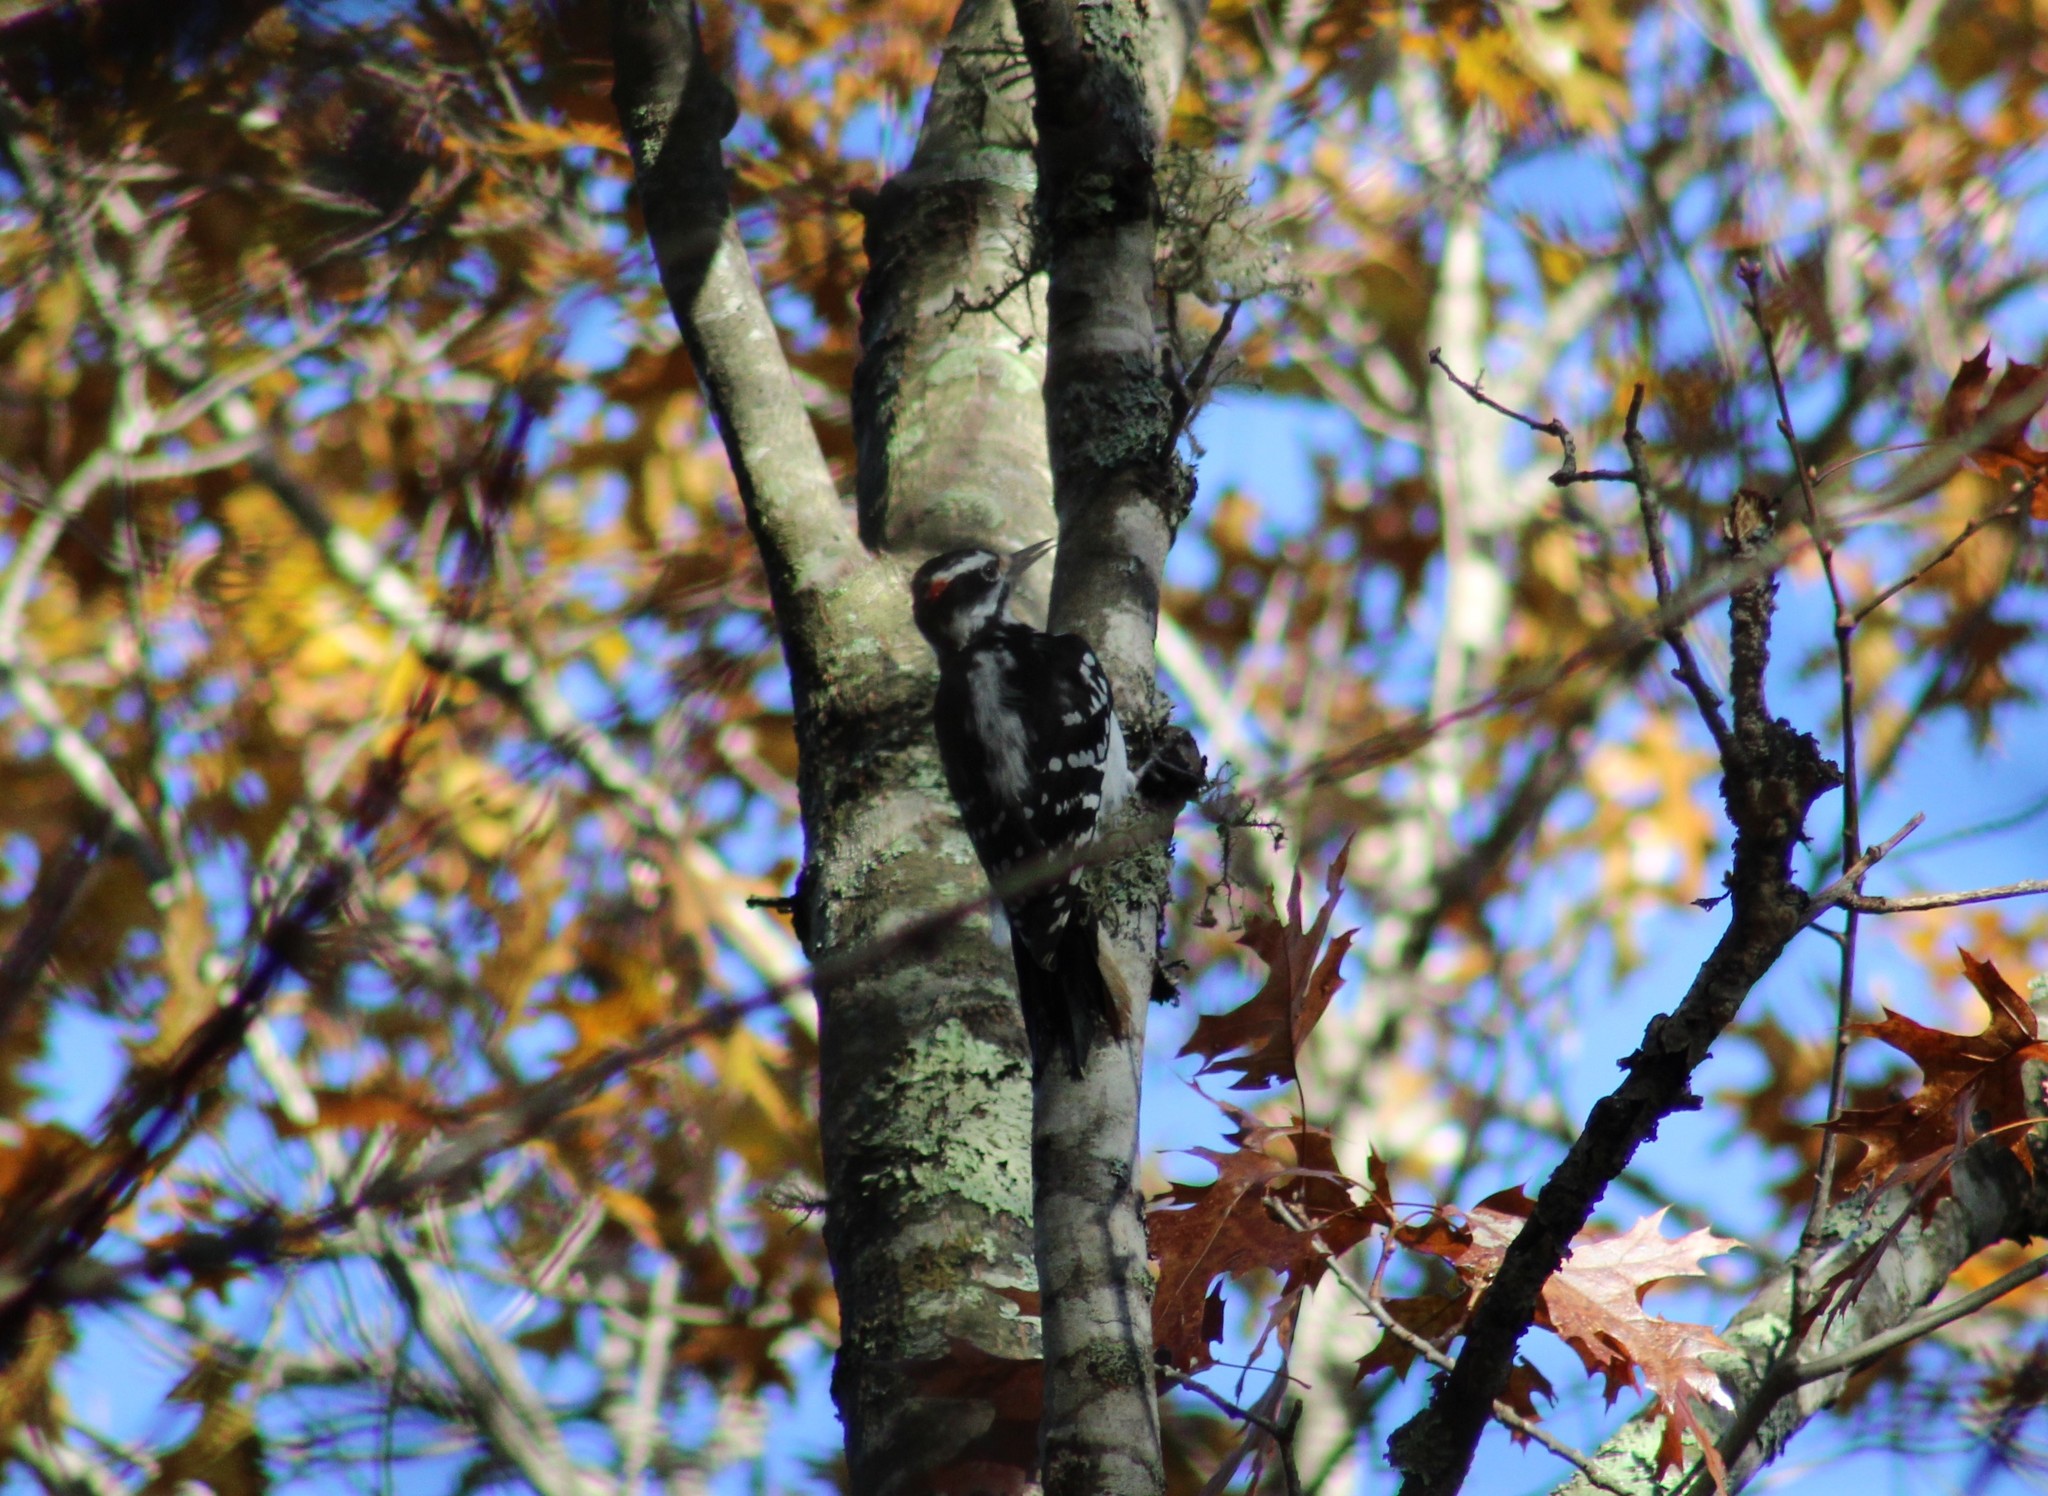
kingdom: Animalia
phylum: Chordata
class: Aves
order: Piciformes
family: Picidae
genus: Leuconotopicus
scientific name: Leuconotopicus villosus
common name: Hairy woodpecker
